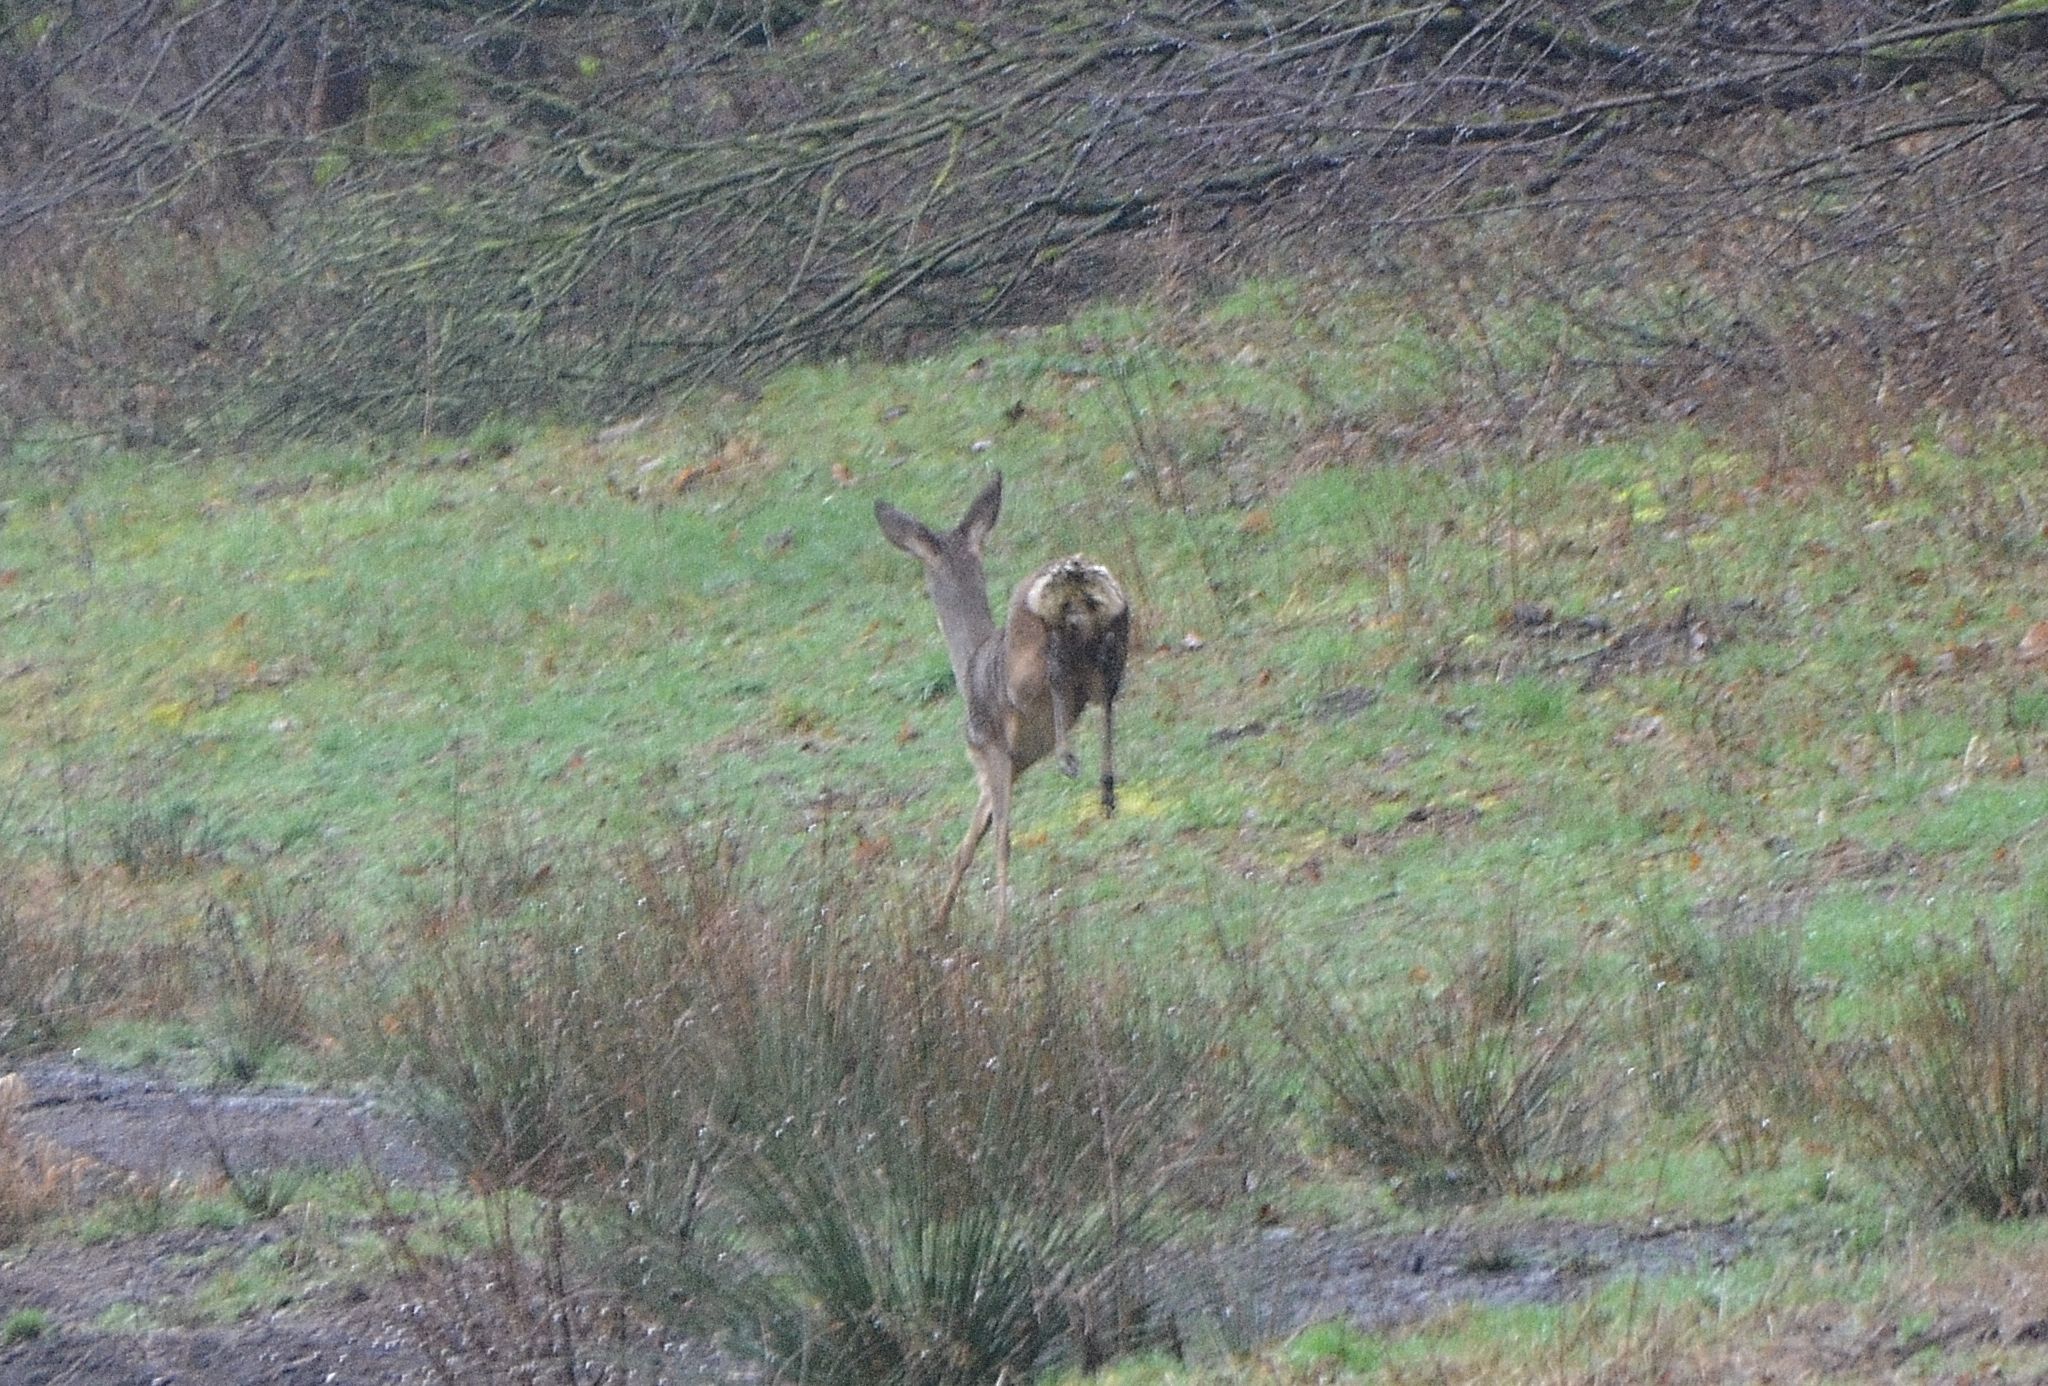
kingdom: Animalia
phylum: Chordata
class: Mammalia
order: Artiodactyla
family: Cervidae
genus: Capreolus
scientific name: Capreolus capreolus
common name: Western roe deer
